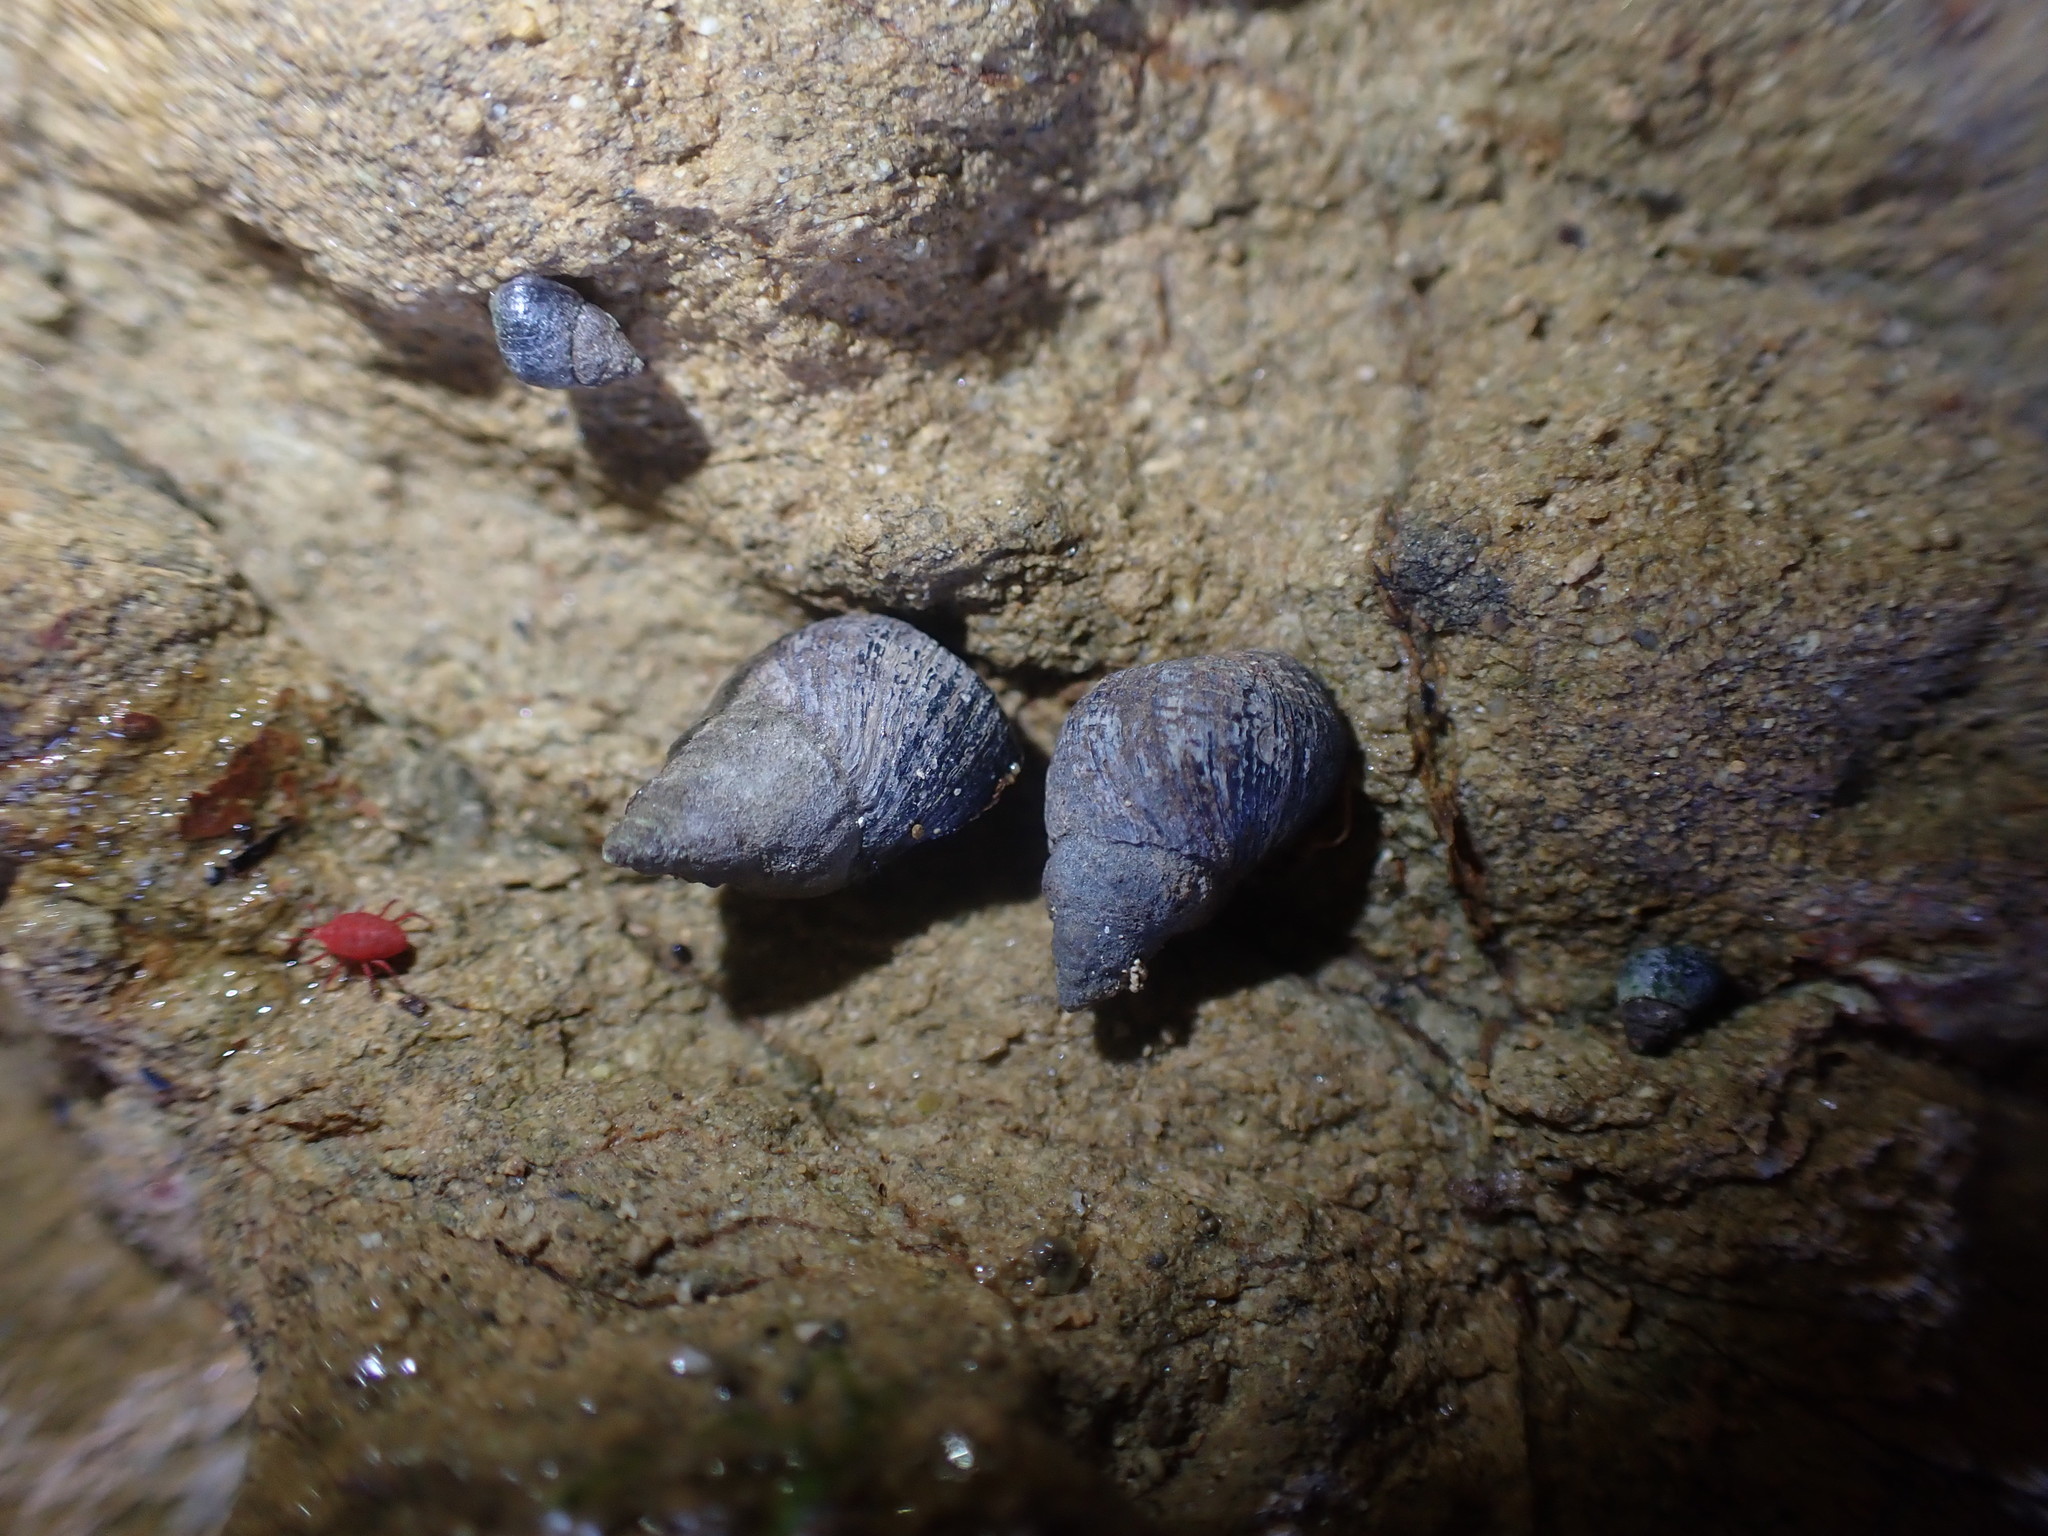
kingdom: Animalia
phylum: Mollusca
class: Gastropoda
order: Littorinimorpha
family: Littorinidae
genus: Austrolittorina
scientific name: Austrolittorina cincta
